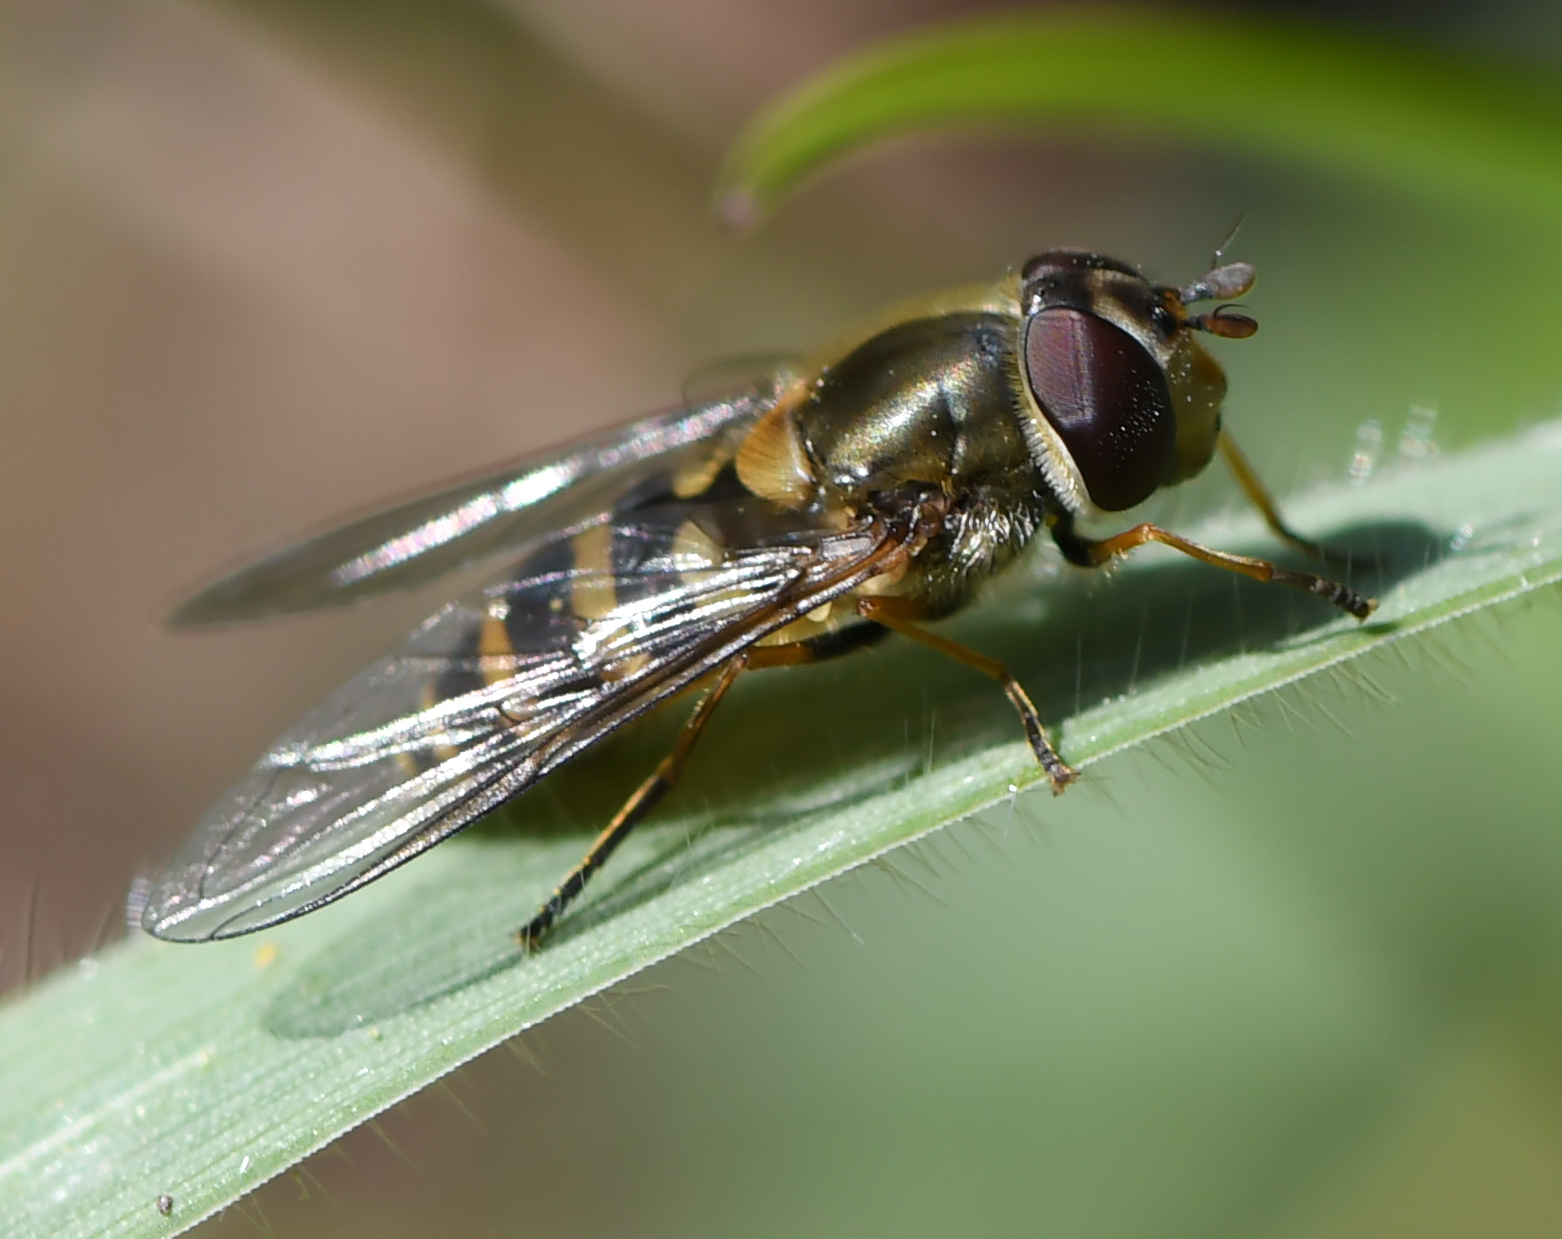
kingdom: Animalia
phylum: Arthropoda
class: Insecta
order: Diptera
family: Syrphidae
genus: Syrphus
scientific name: Syrphus torvus
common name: Hairy-eyed flower fly
